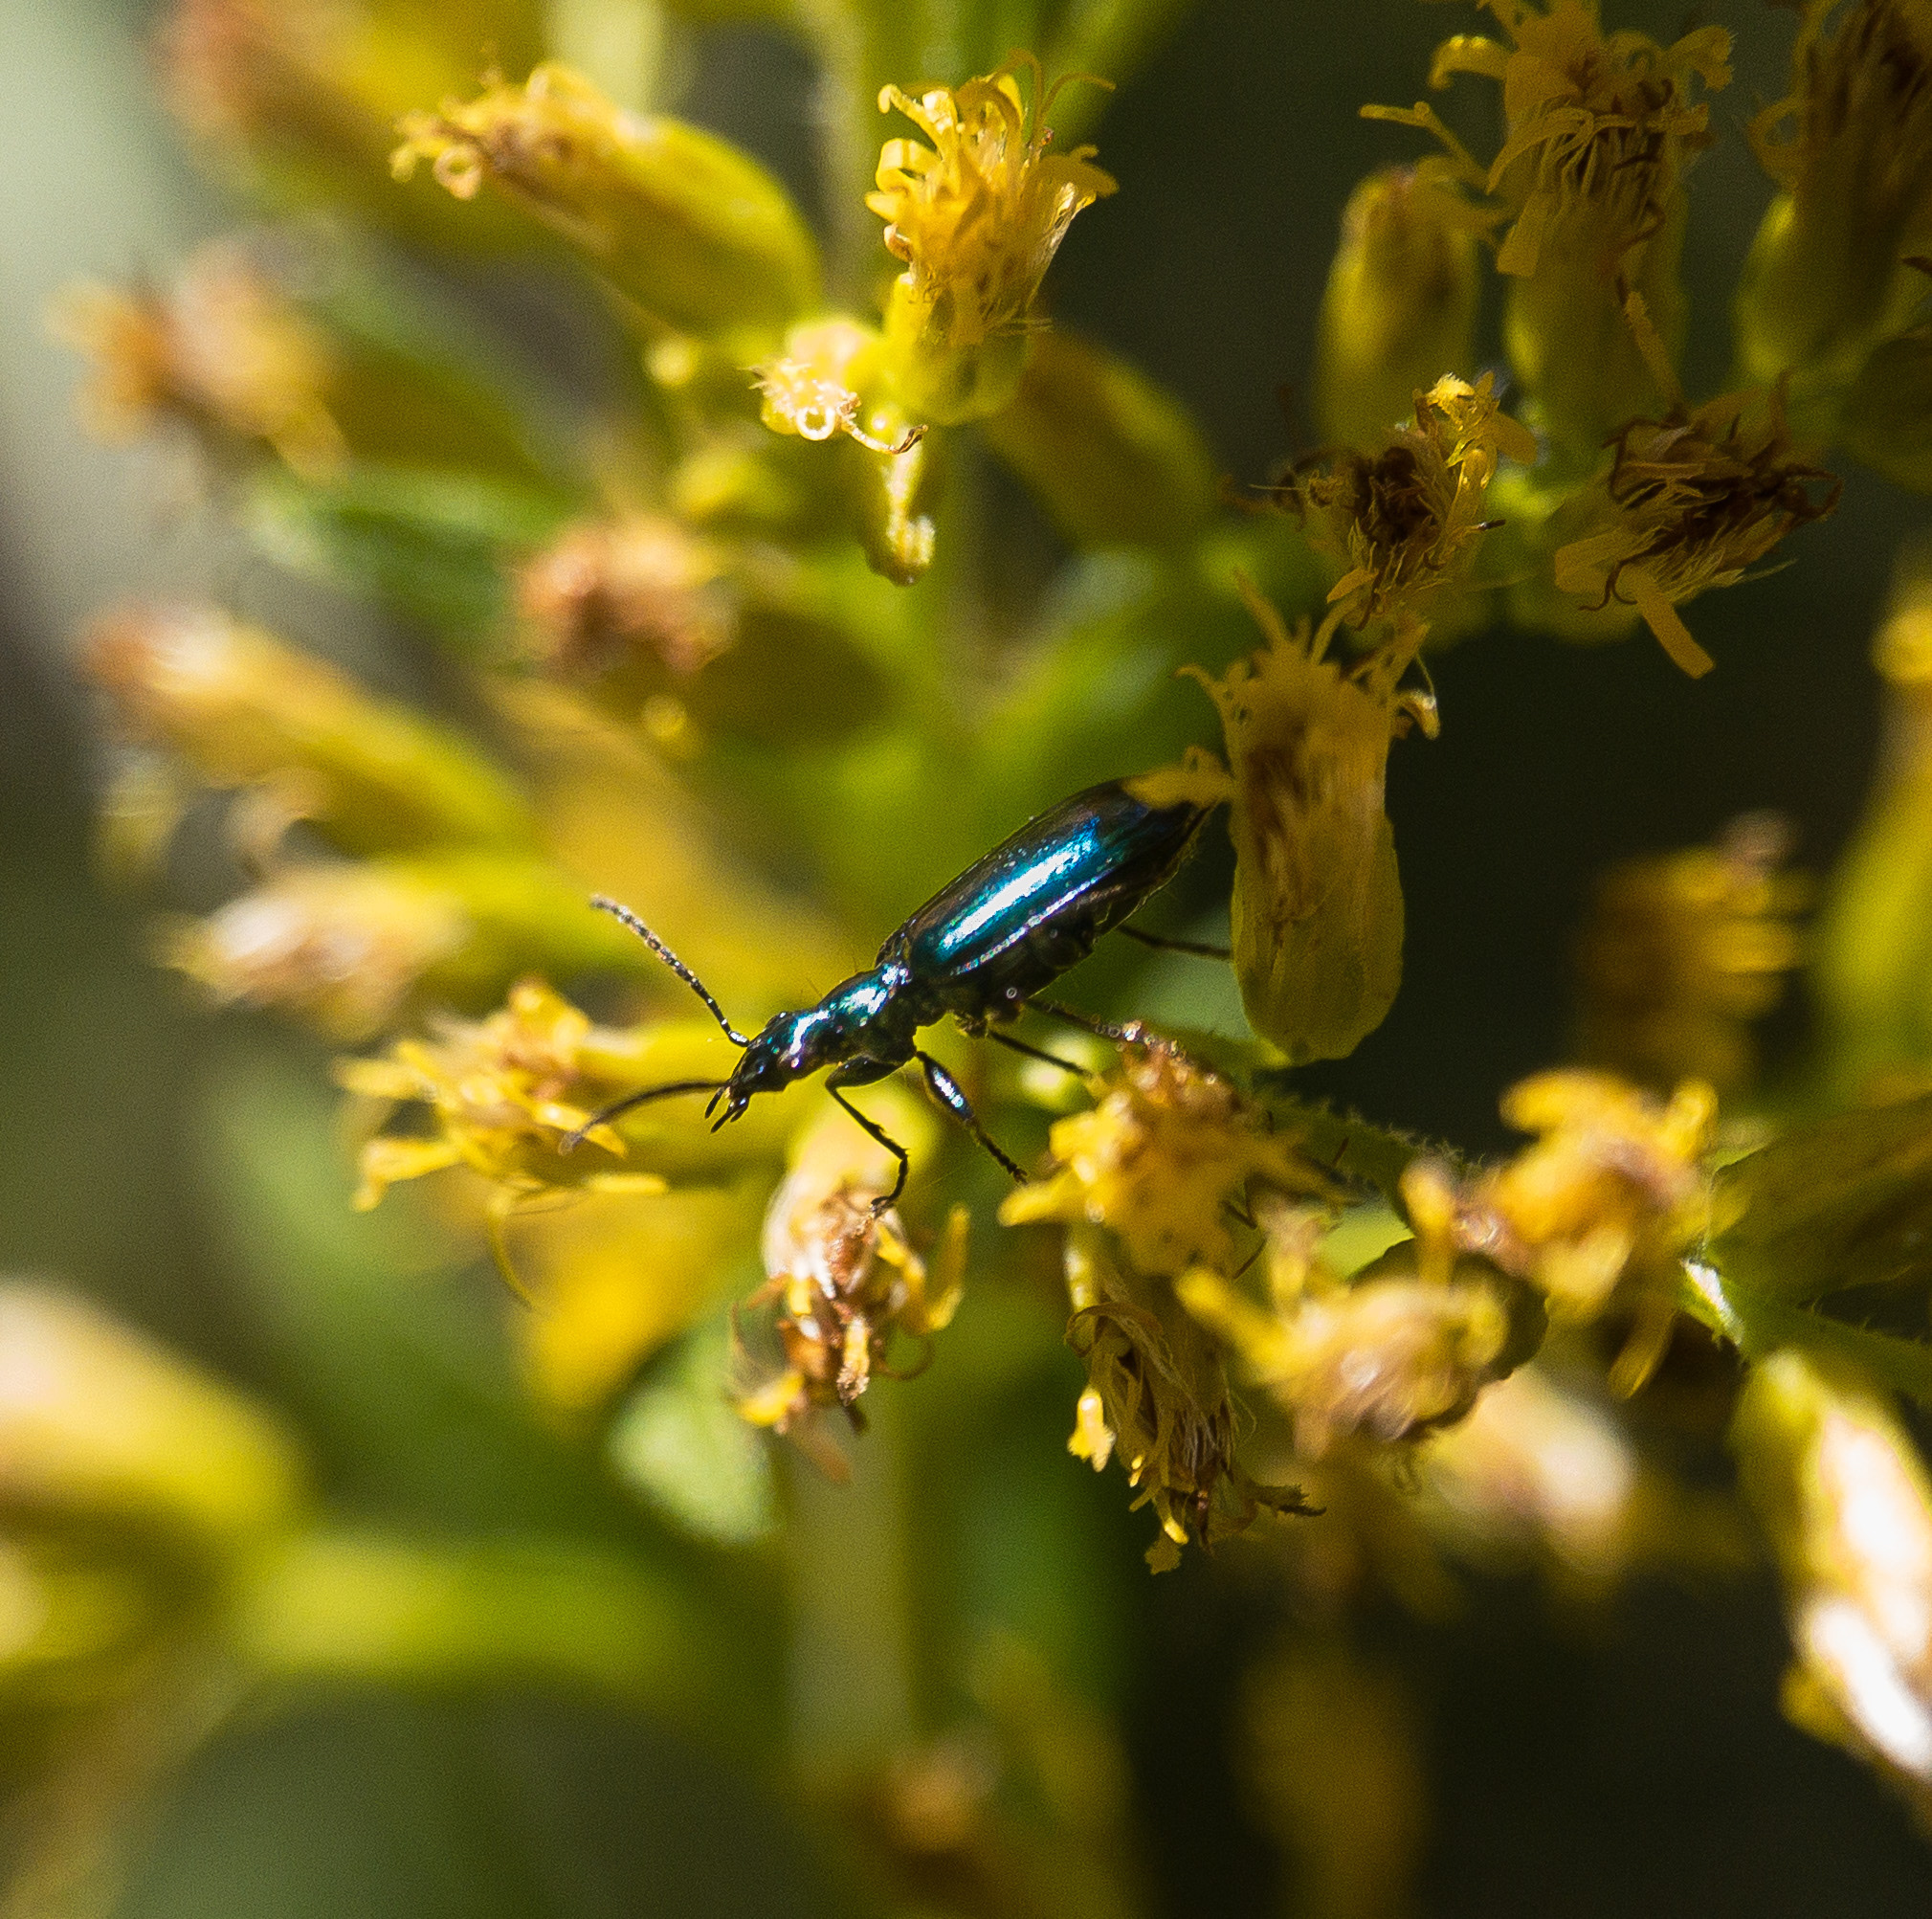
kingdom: Animalia
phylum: Arthropoda
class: Insecta
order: Coleoptera
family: Carabidae
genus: Lebia
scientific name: Lebia viridis
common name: Flower lebia beetle
